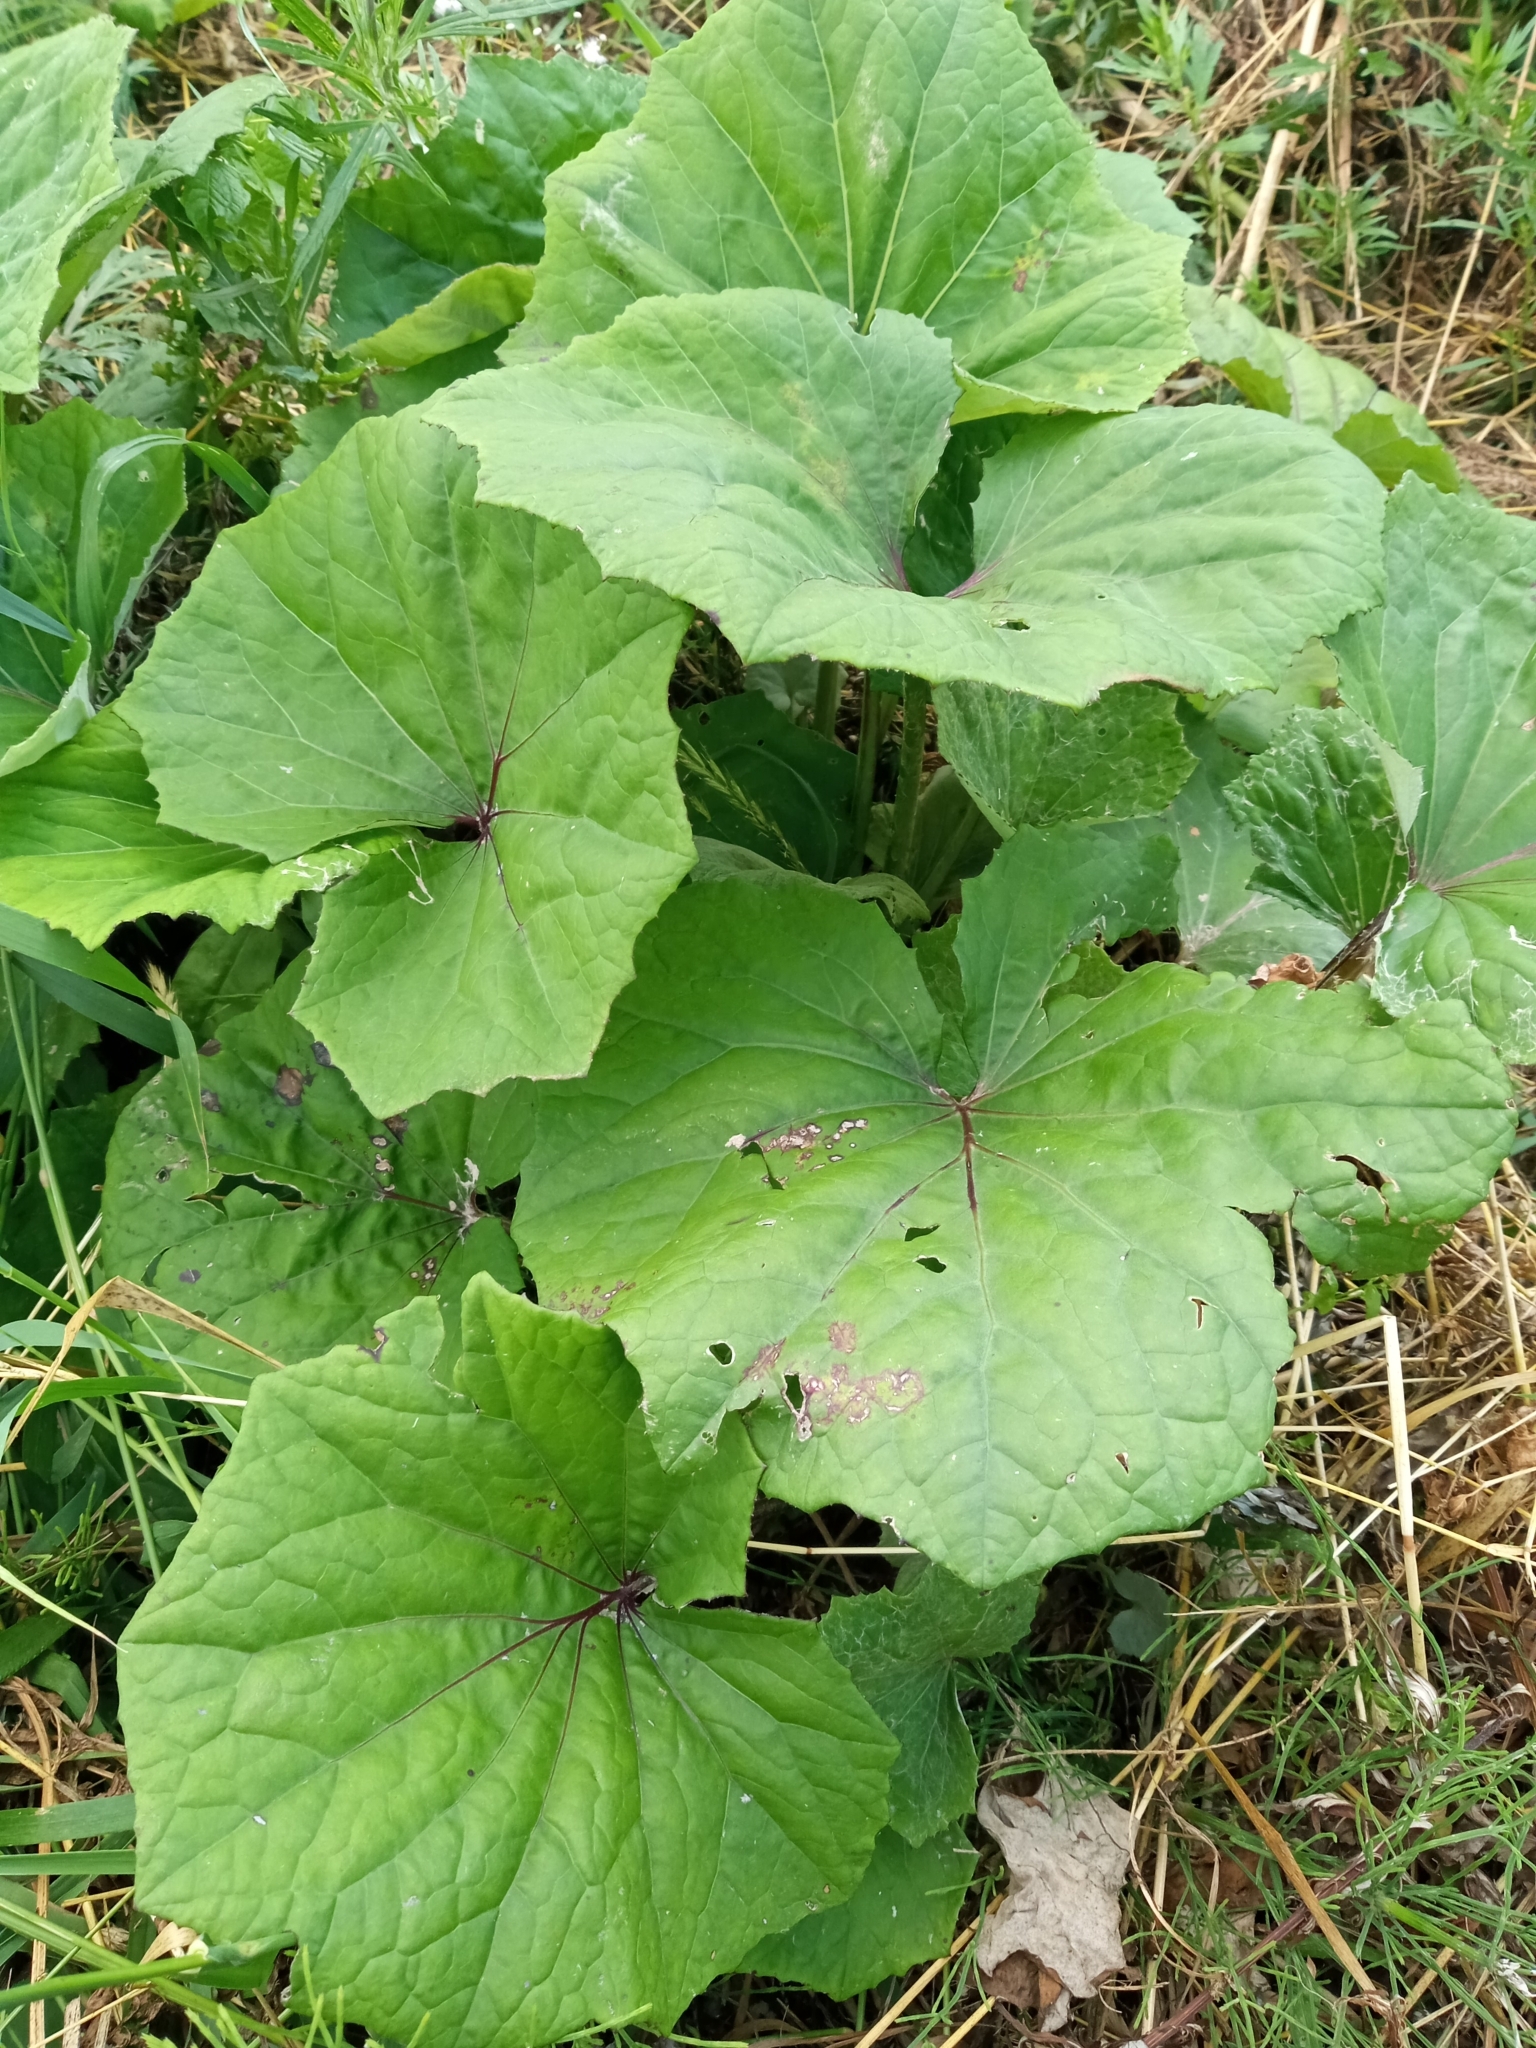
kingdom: Plantae
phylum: Tracheophyta
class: Magnoliopsida
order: Asterales
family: Asteraceae
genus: Tussilago
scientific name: Tussilago farfara
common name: Coltsfoot
